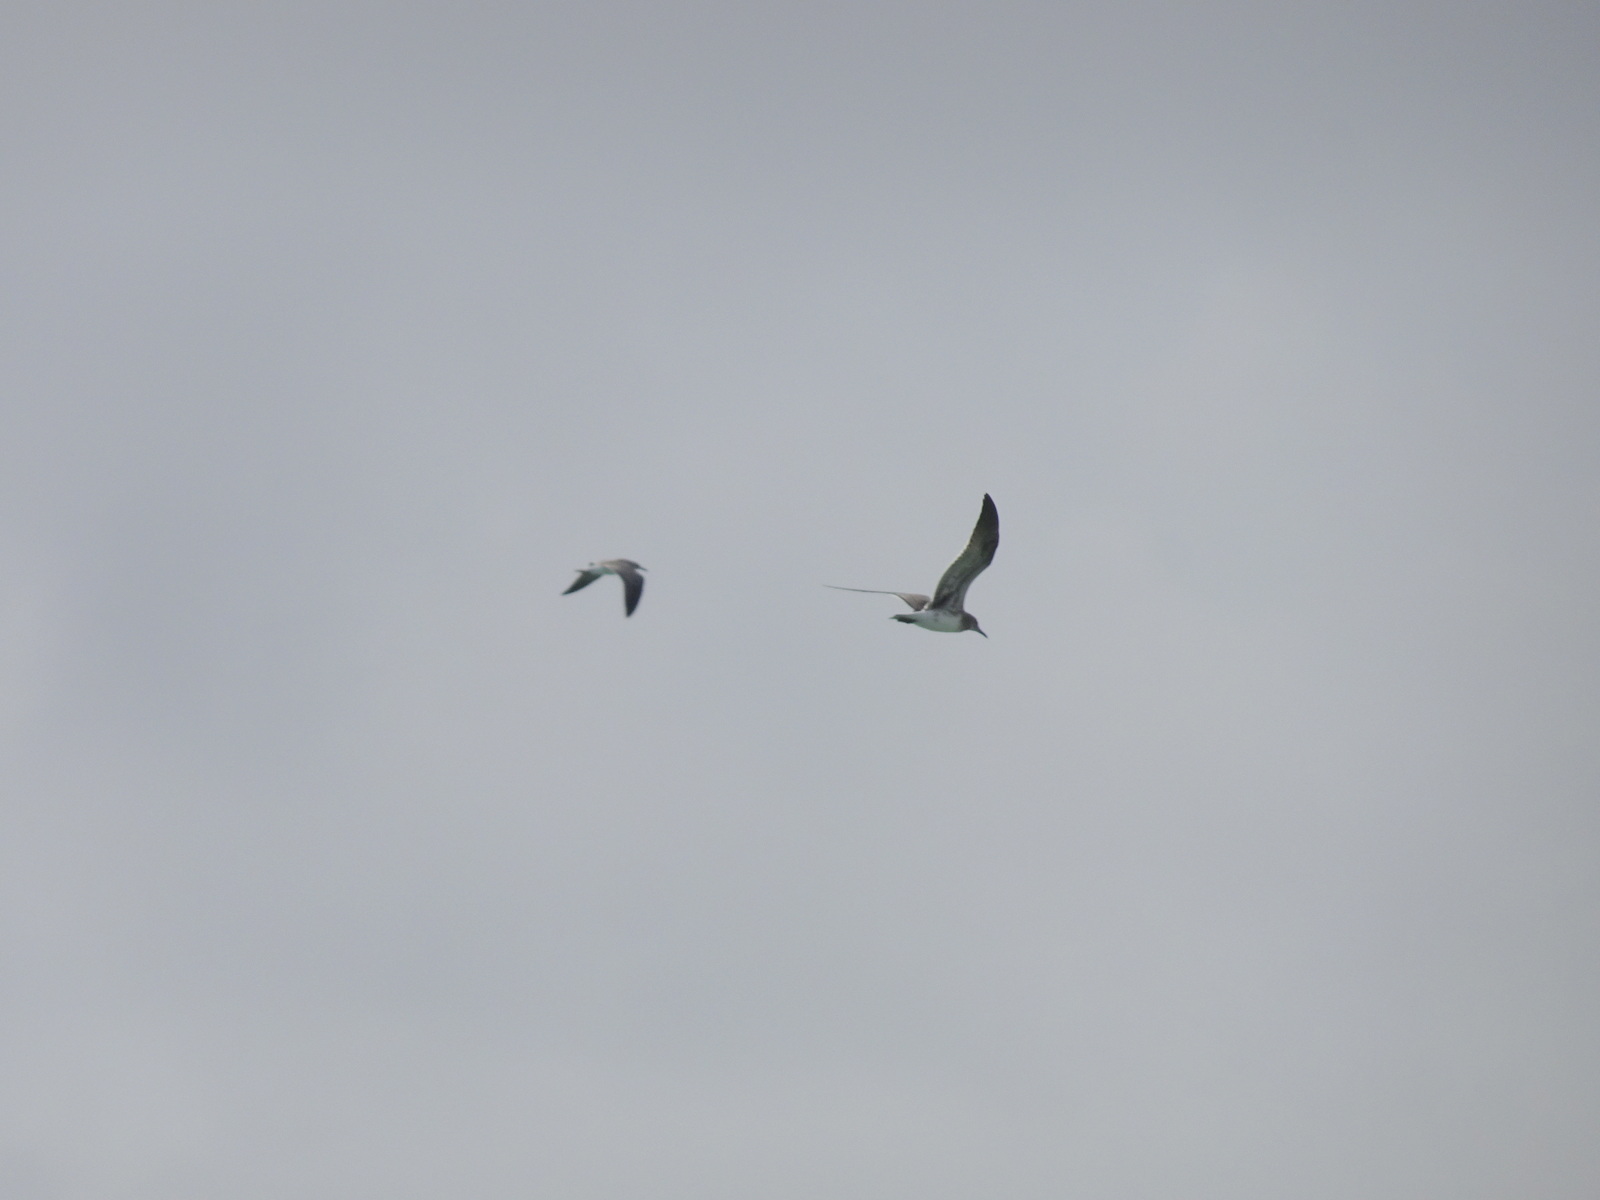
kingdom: Animalia
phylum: Chordata
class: Aves
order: Charadriiformes
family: Laridae
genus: Leucophaeus
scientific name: Leucophaeus atricilla
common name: Laughing gull
